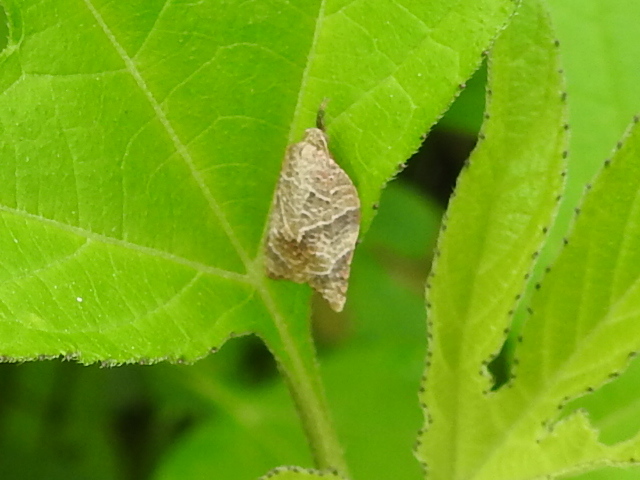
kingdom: Animalia
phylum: Arthropoda
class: Insecta
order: Lepidoptera
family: Tortricidae
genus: Platynota
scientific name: Platynota rostrana
